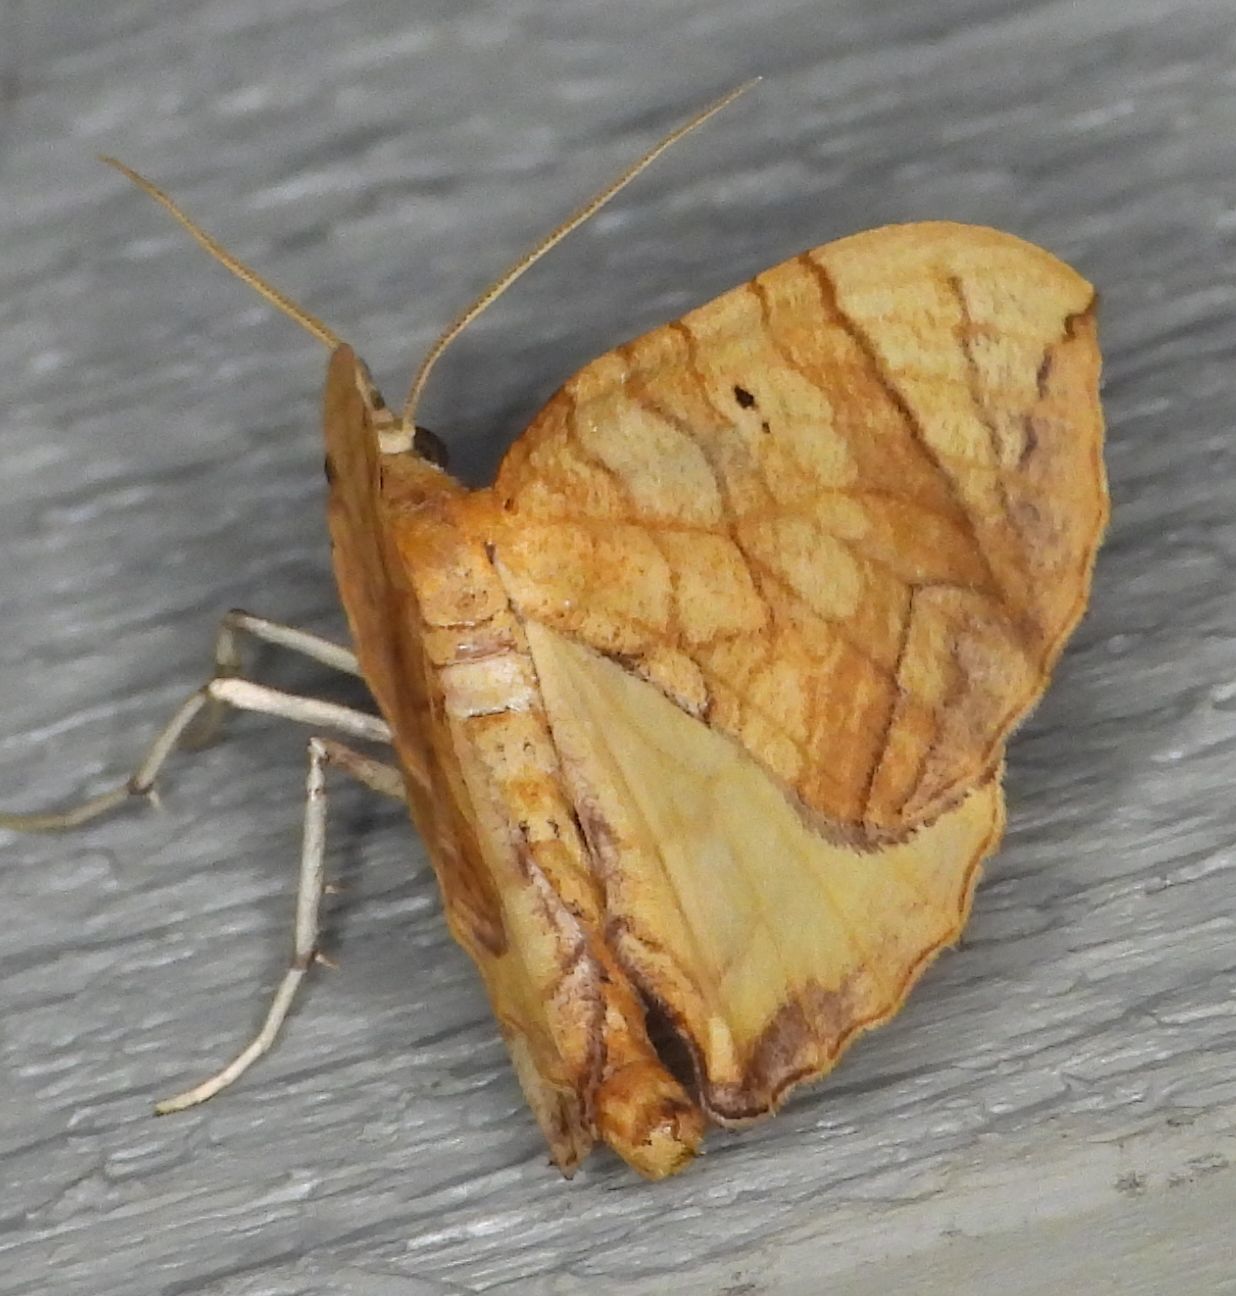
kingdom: Animalia
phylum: Arthropoda
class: Insecta
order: Lepidoptera
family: Geometridae
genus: Eulithis
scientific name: Eulithis
